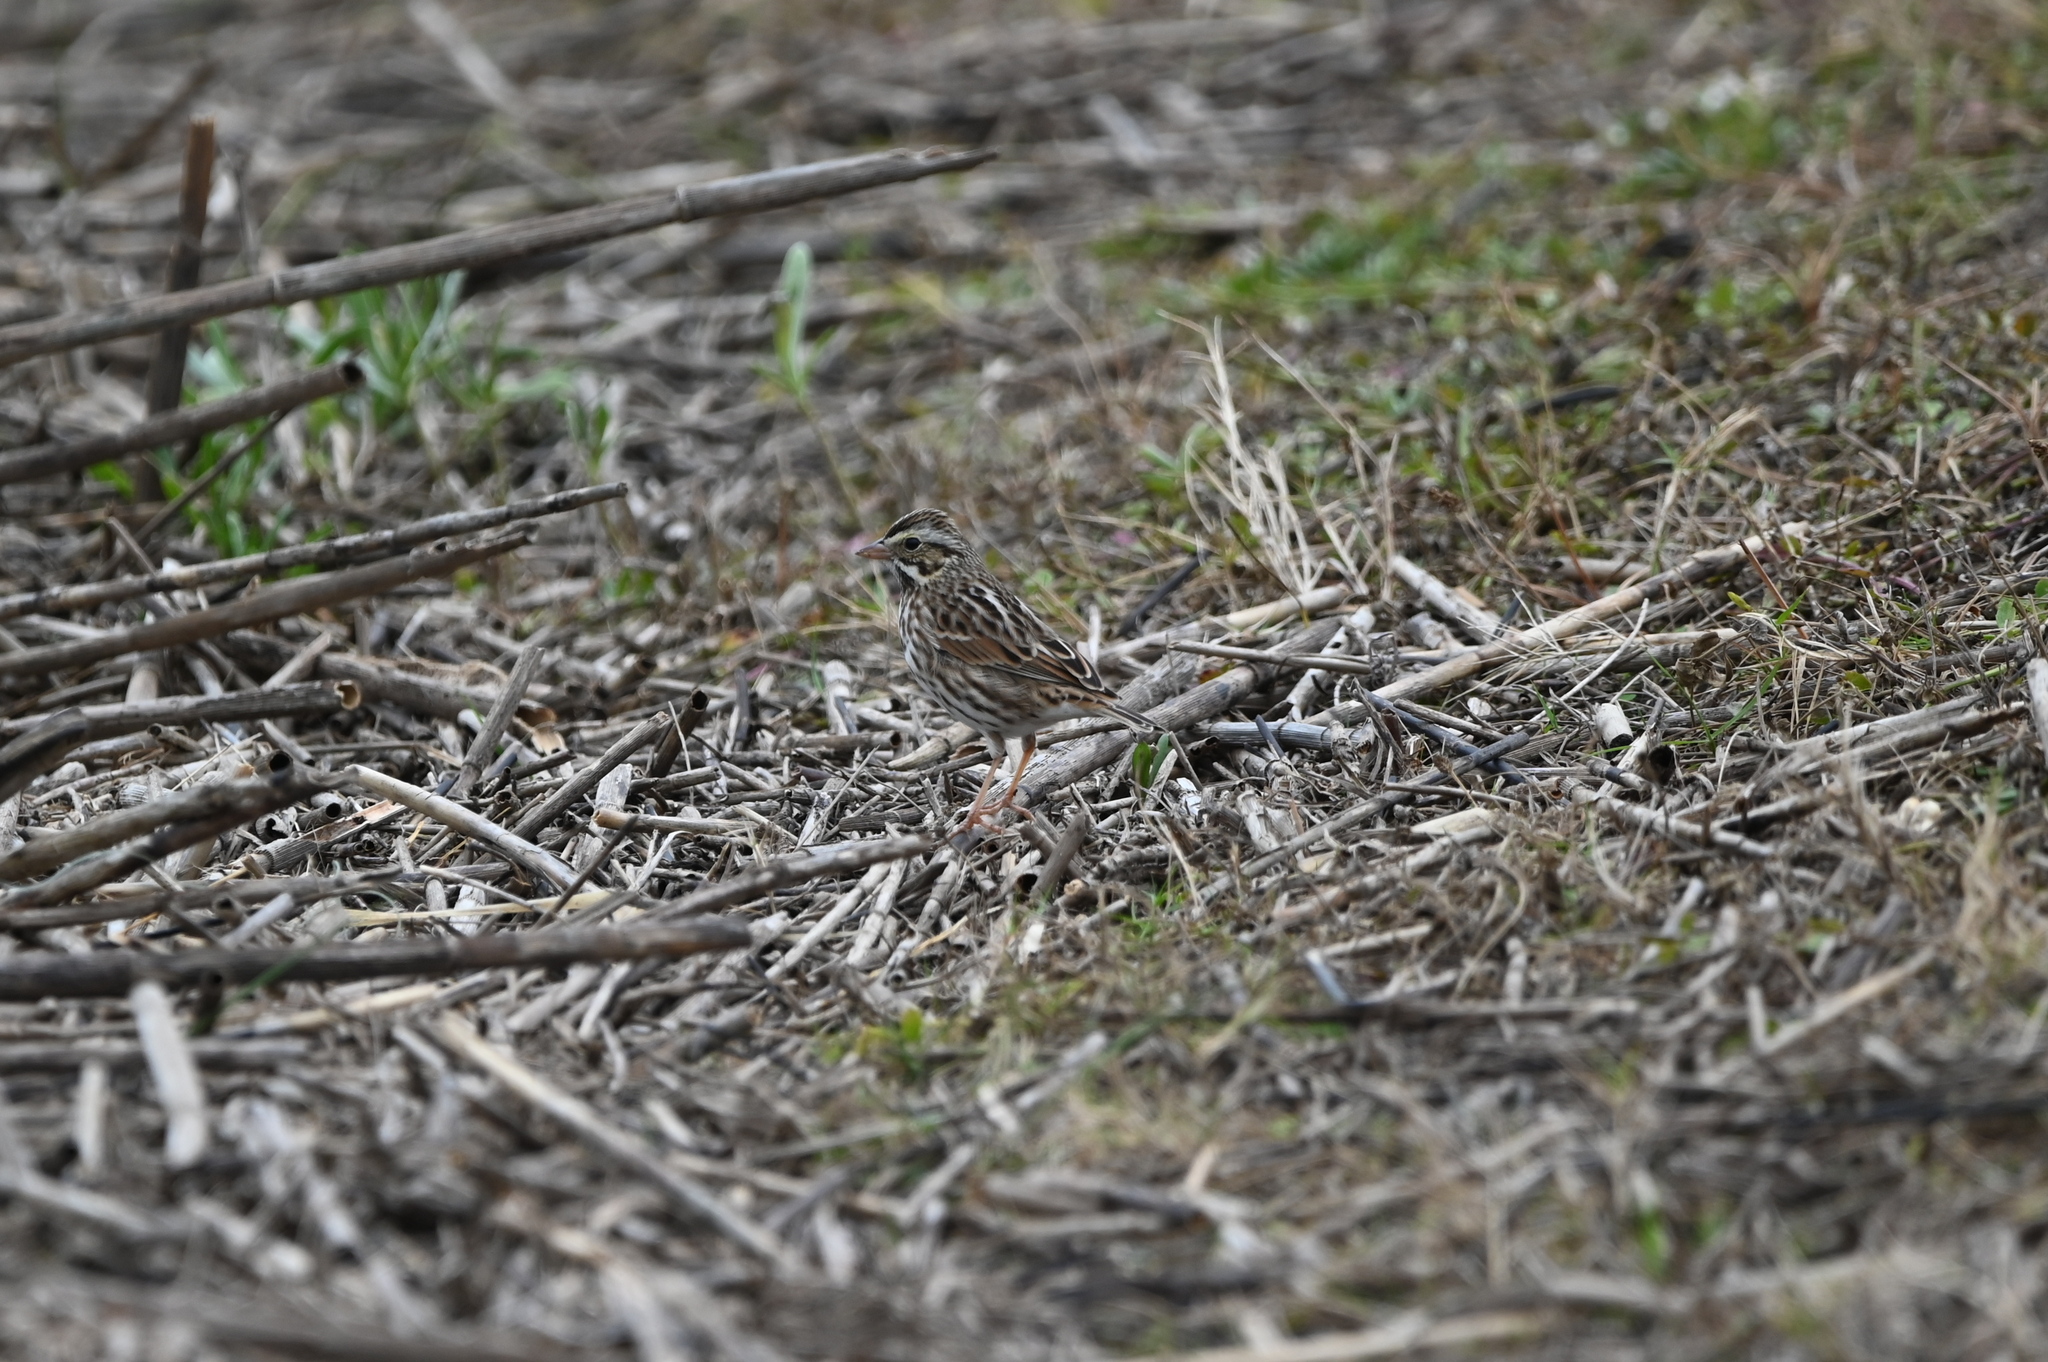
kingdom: Animalia
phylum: Chordata
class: Aves
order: Passeriformes
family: Passerellidae
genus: Passerculus
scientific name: Passerculus sandwichensis
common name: Savannah sparrow
